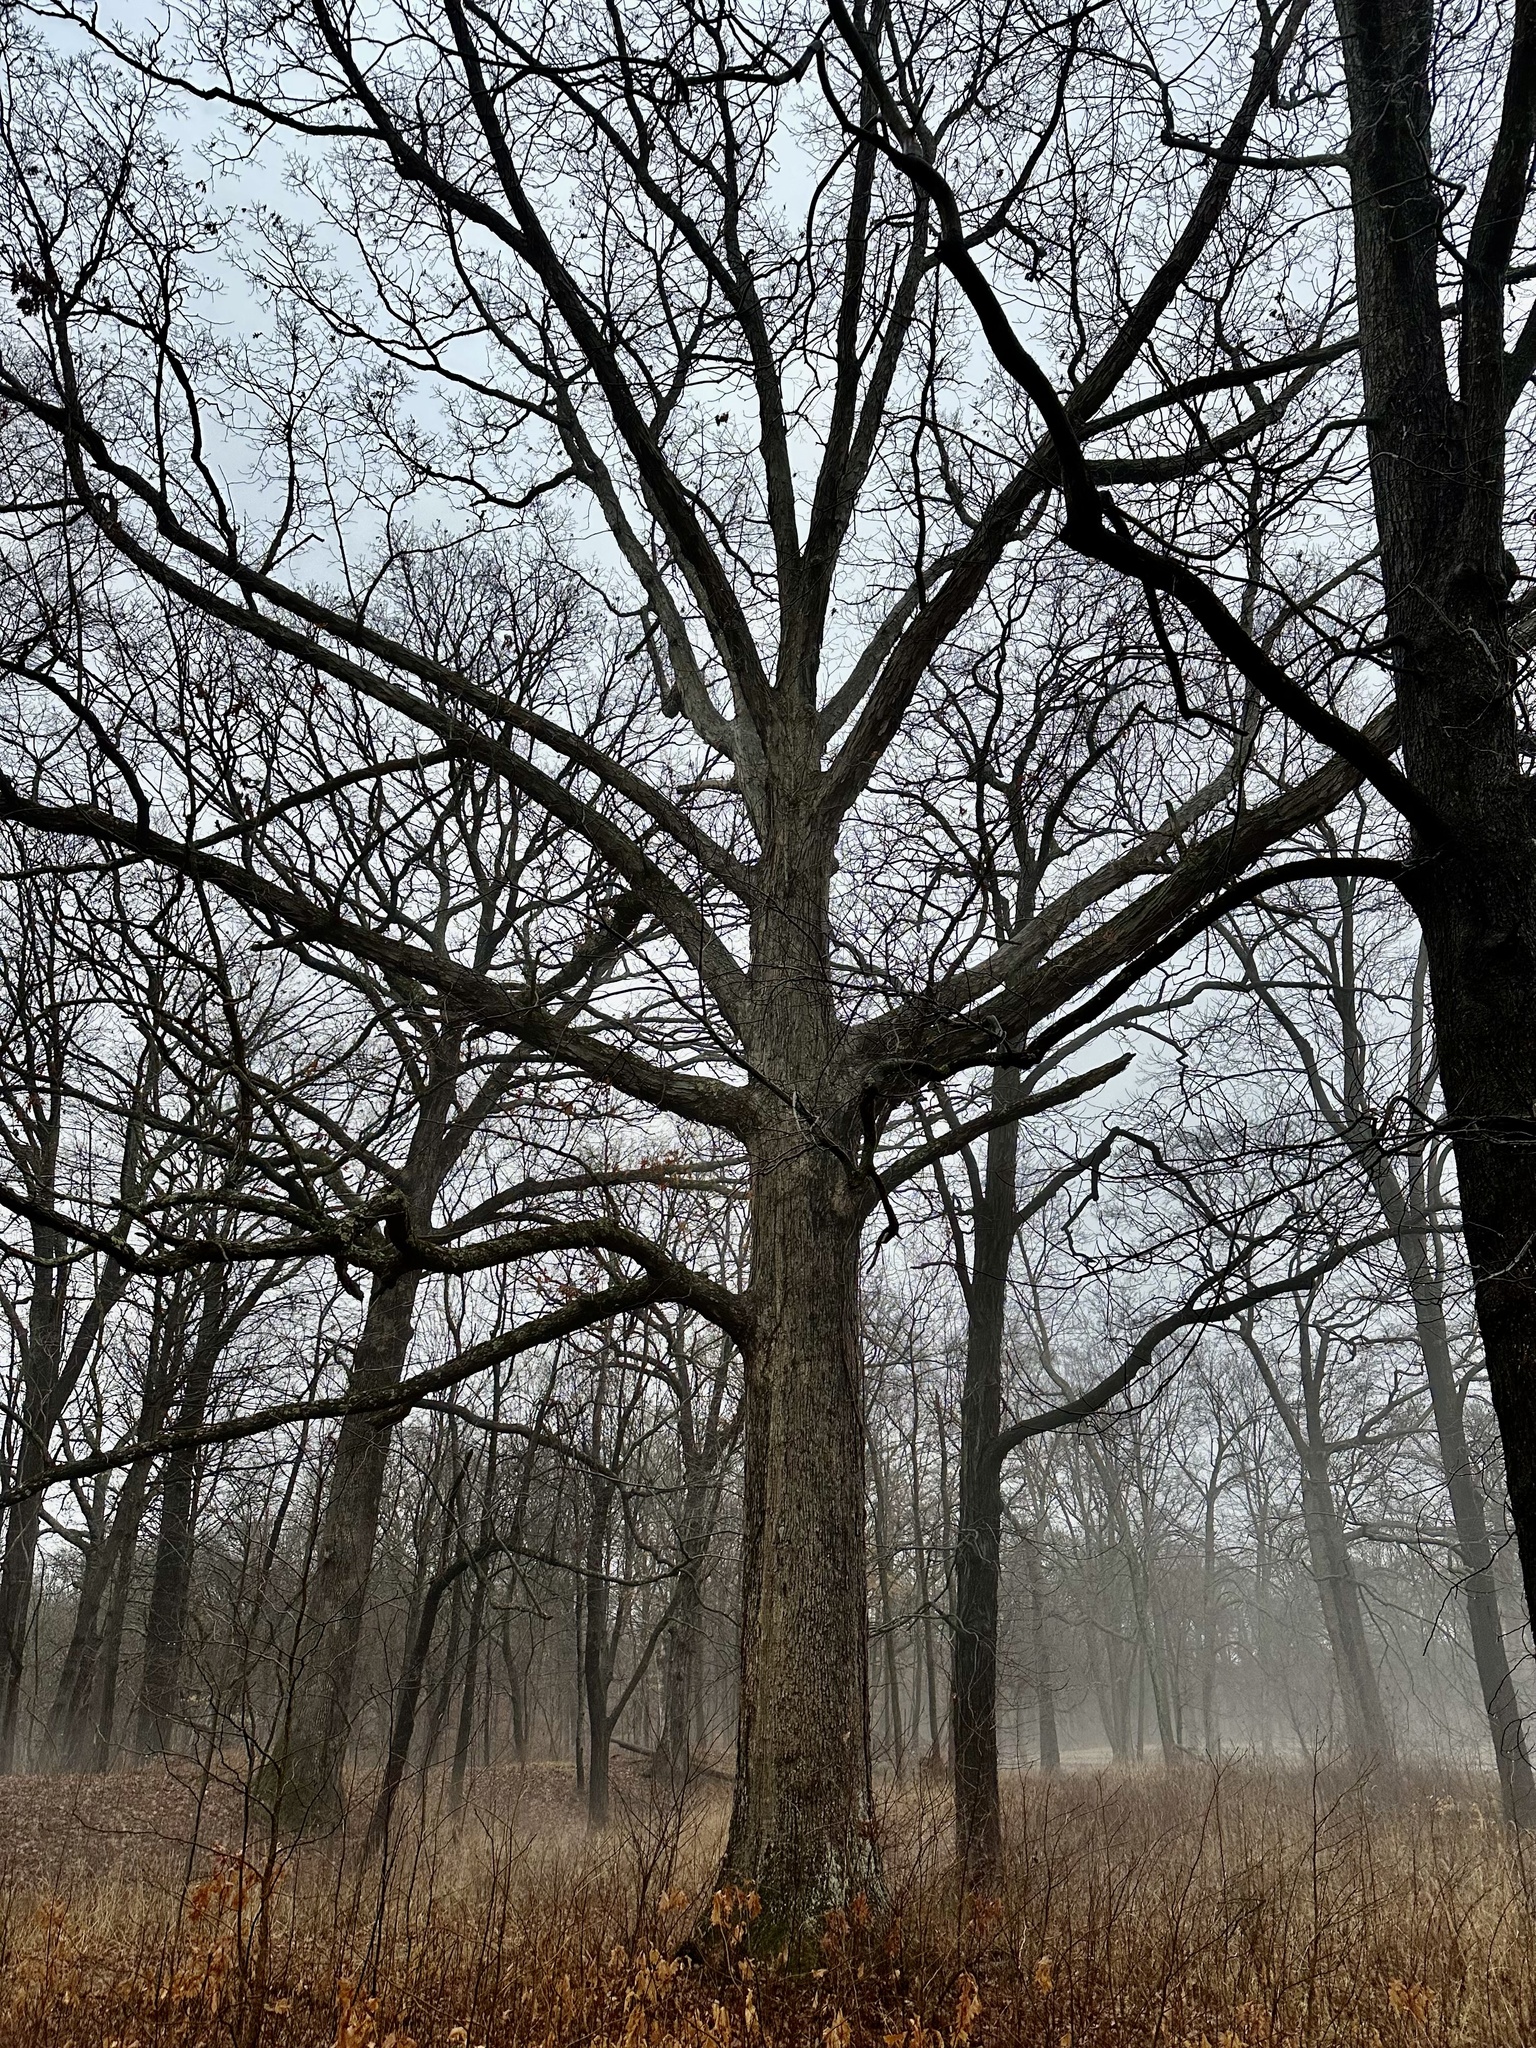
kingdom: Plantae
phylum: Tracheophyta
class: Magnoliopsida
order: Fagales
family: Fagaceae
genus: Quercus
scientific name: Quercus alba
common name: White oak
